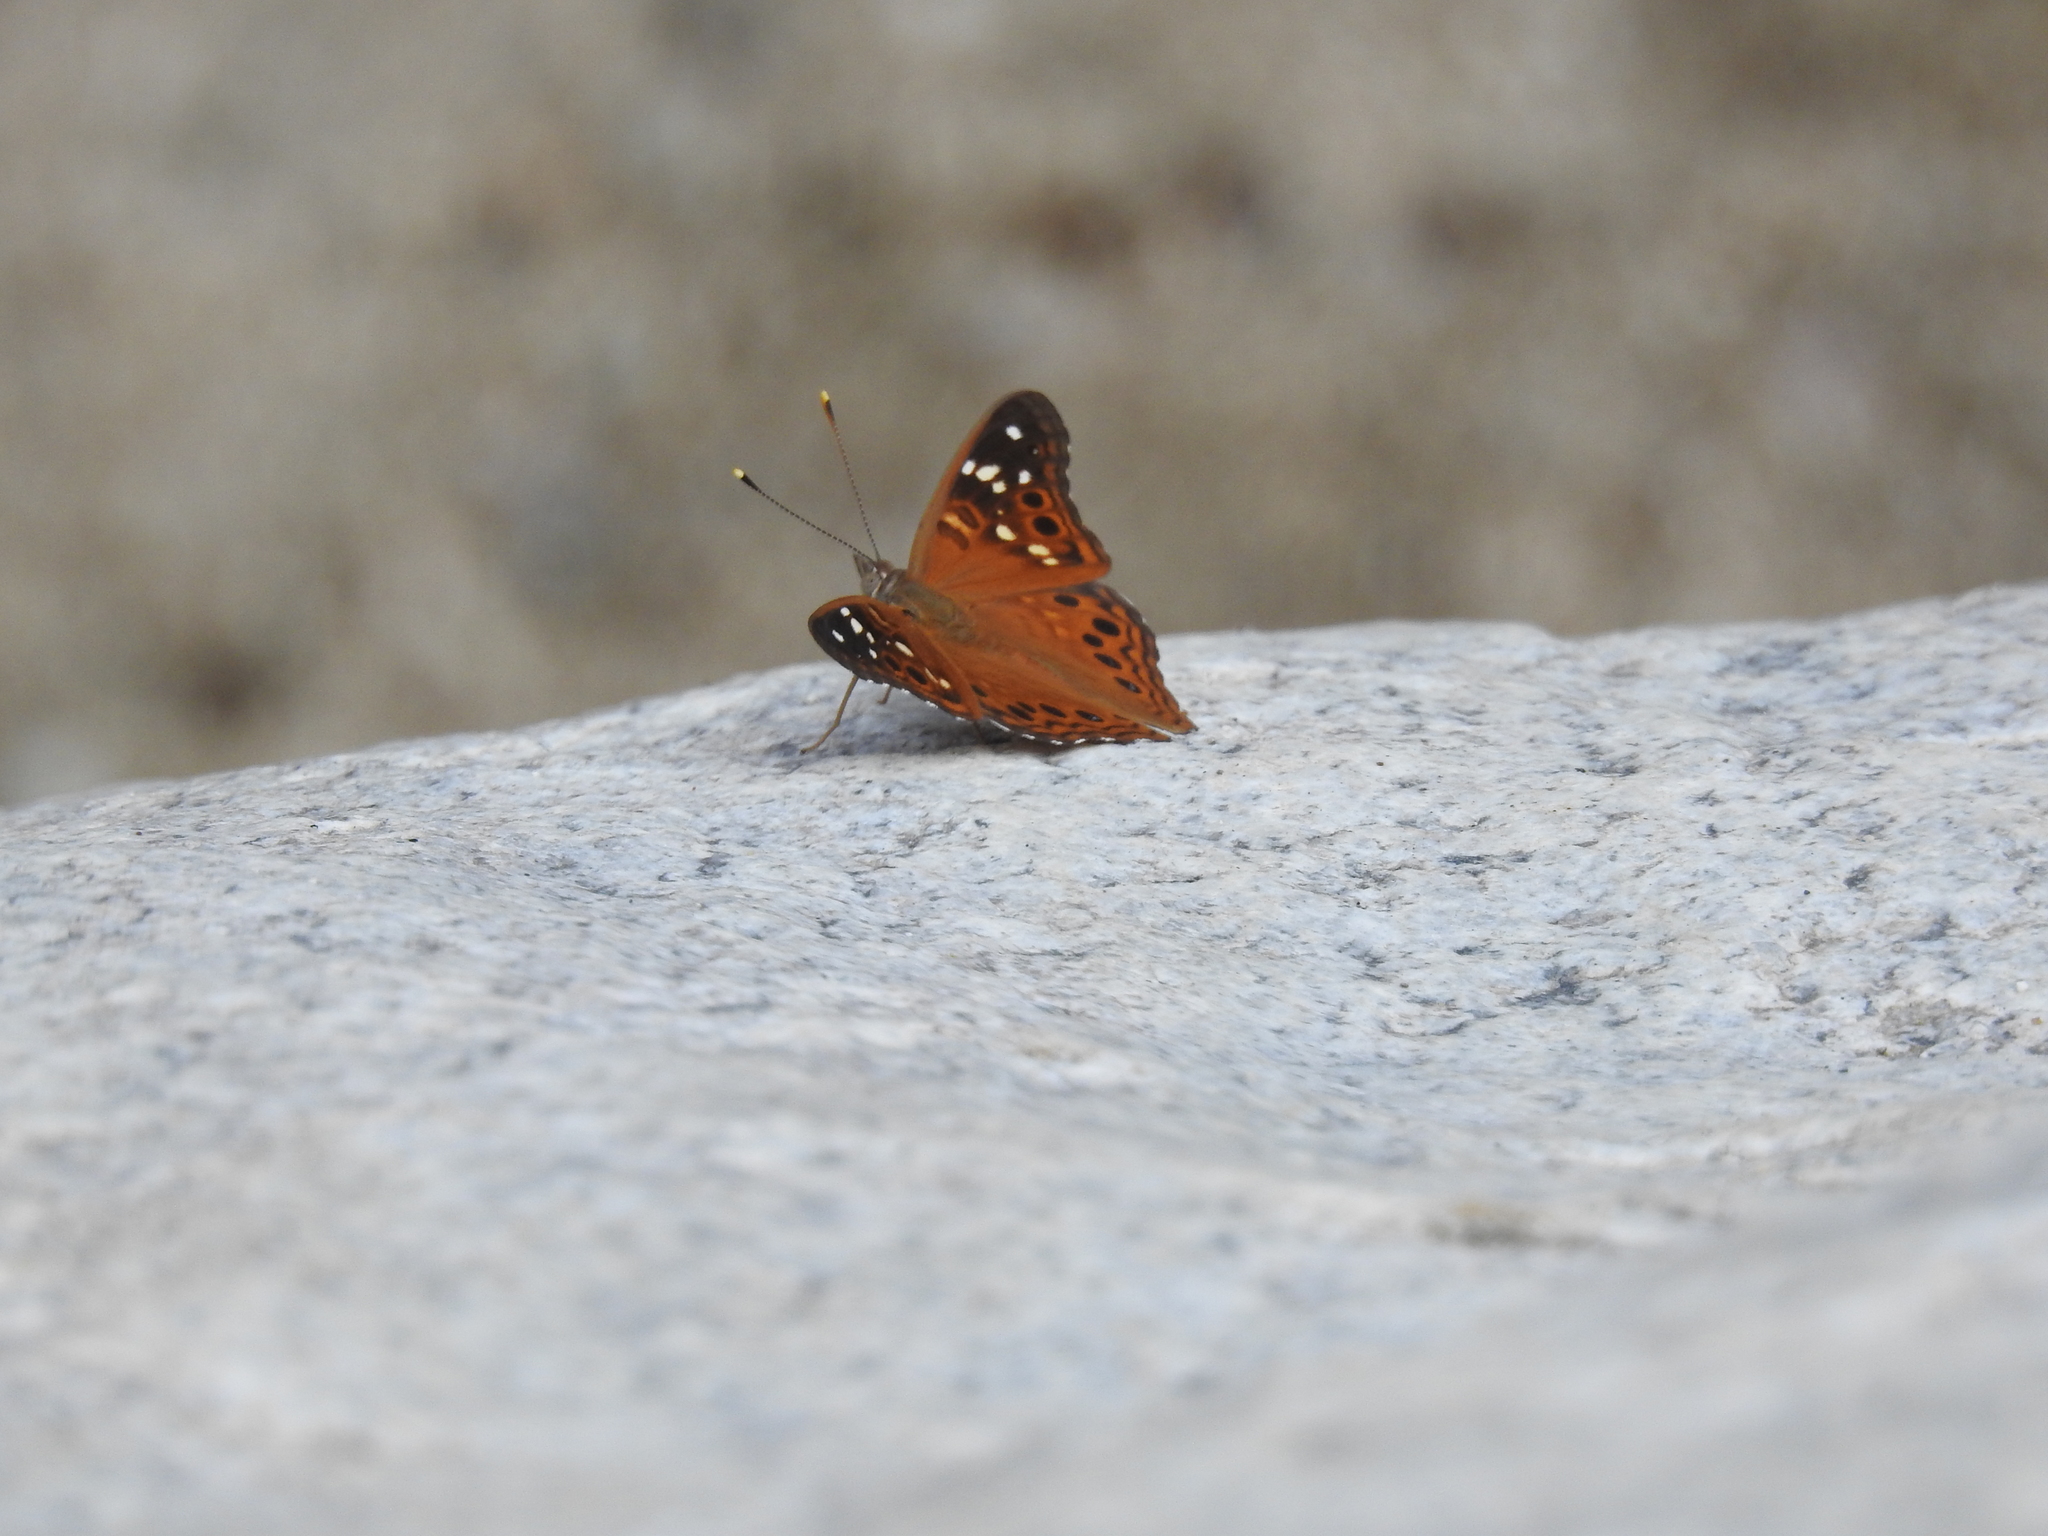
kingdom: Animalia
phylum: Arthropoda
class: Insecta
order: Lepidoptera
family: Nymphalidae
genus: Asterocampa
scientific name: Asterocampa leilia
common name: Empress leilia
